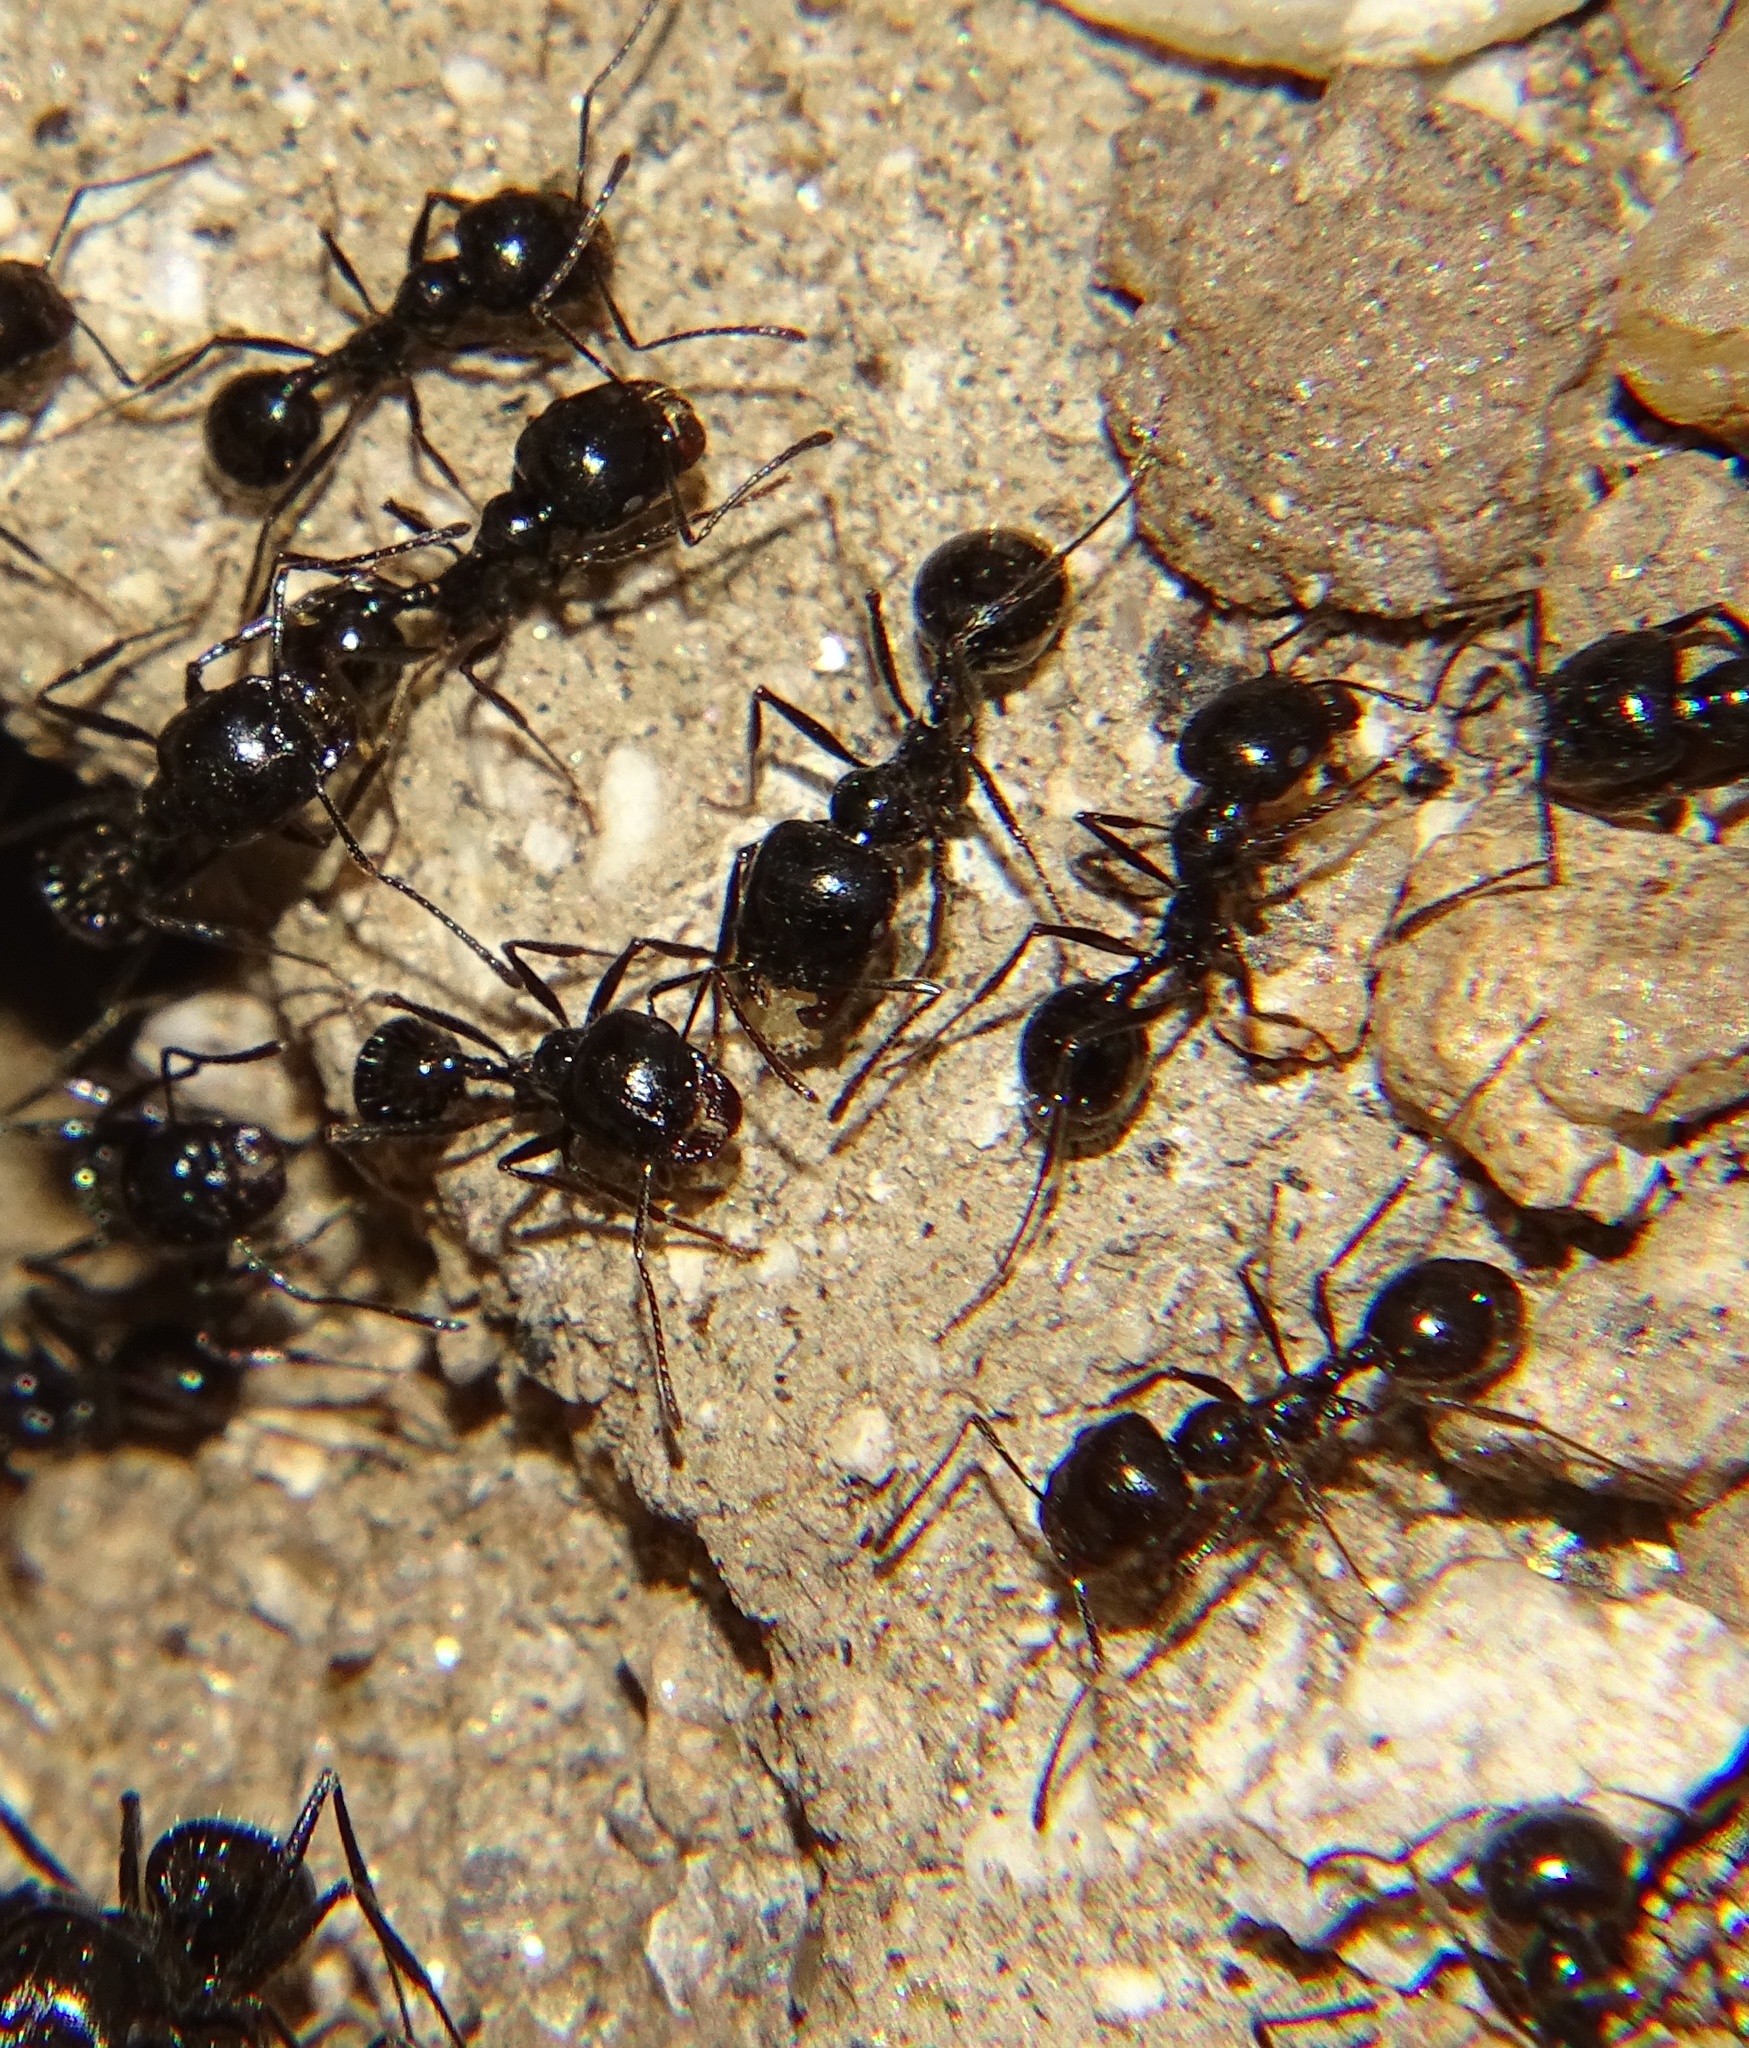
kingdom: Animalia
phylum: Arthropoda
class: Insecta
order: Hymenoptera
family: Formicidae
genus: Messor
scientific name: Messor pergandei
